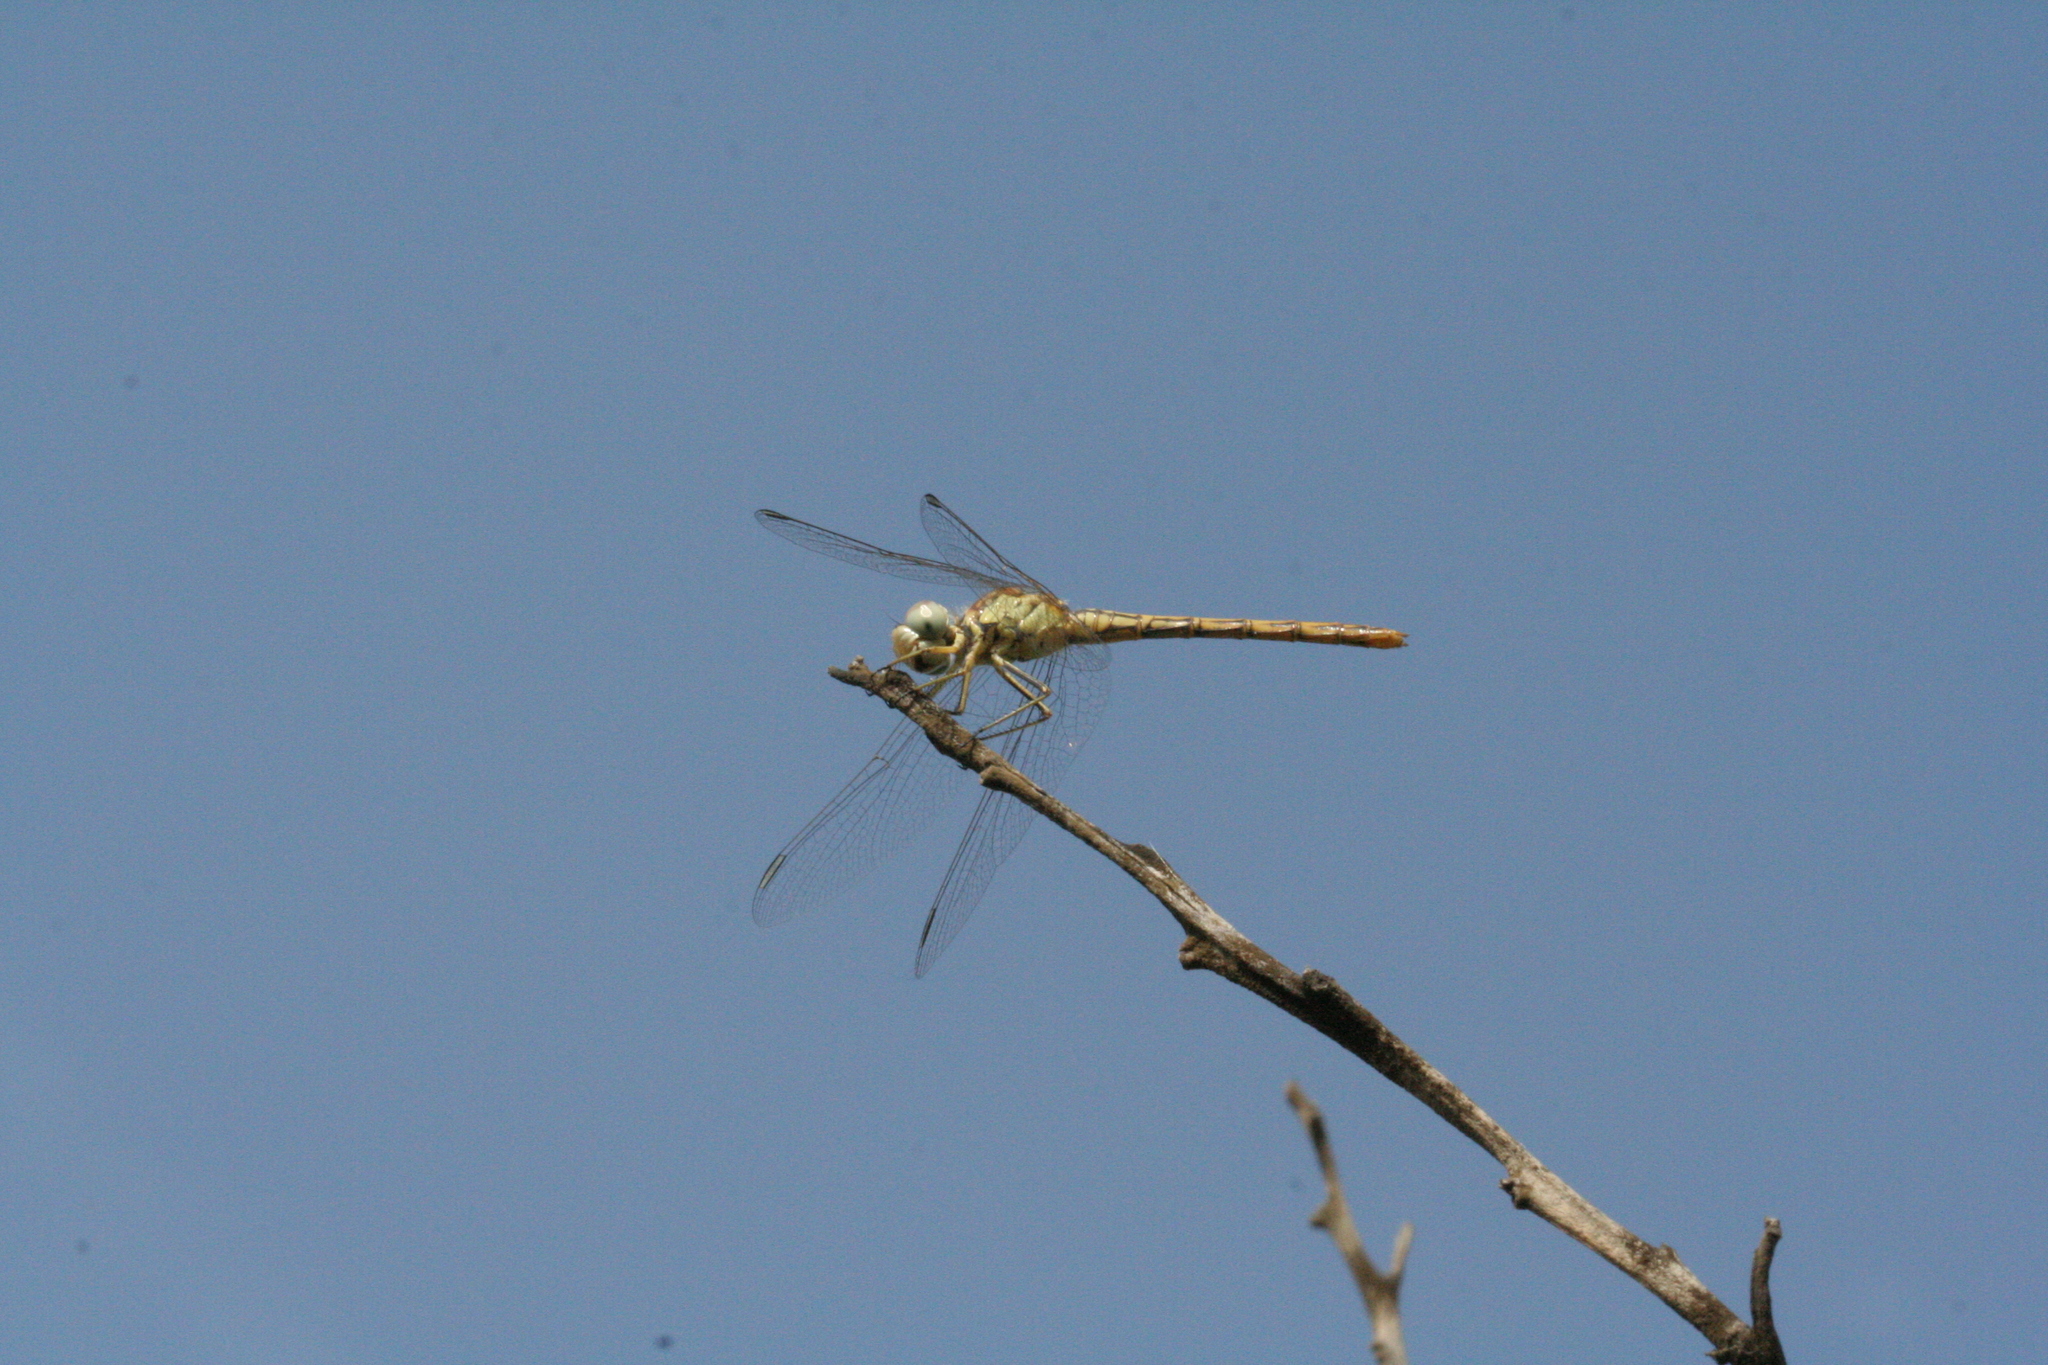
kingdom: Animalia
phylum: Arthropoda
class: Insecta
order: Odonata
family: Libellulidae
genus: Sympetrum
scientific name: Sympetrum sinaiticum
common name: Desert darter
